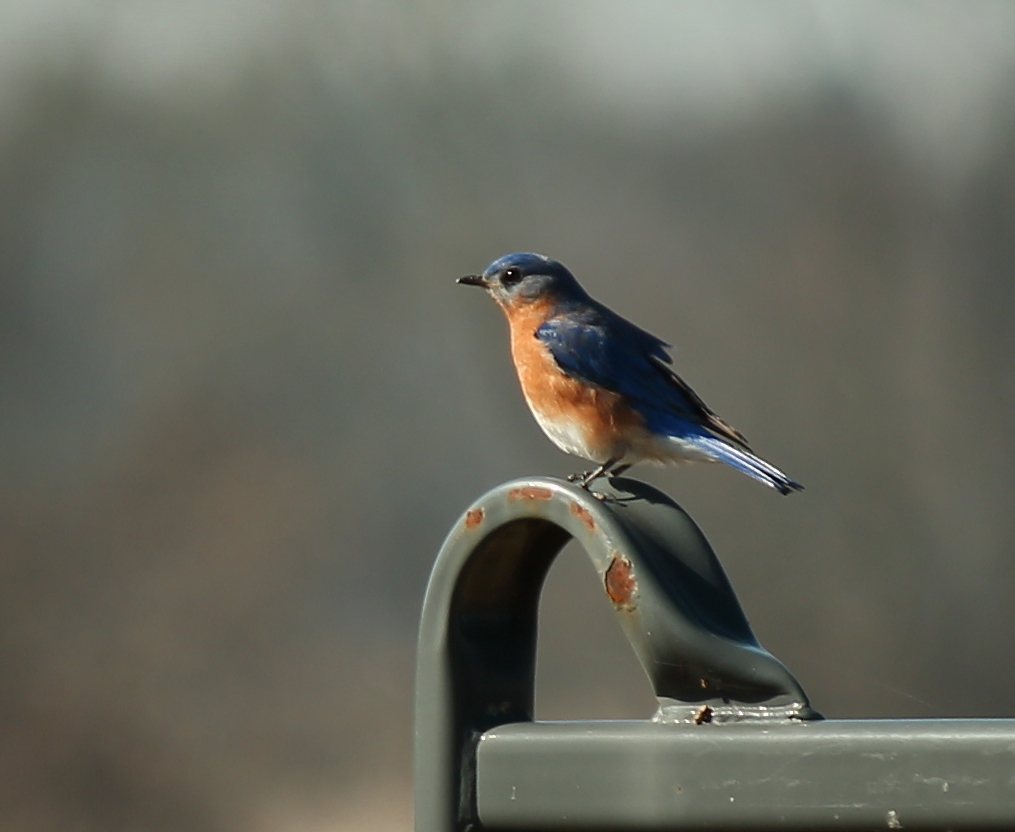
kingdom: Animalia
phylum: Chordata
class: Aves
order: Passeriformes
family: Turdidae
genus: Sialia
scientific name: Sialia sialis
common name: Eastern bluebird
